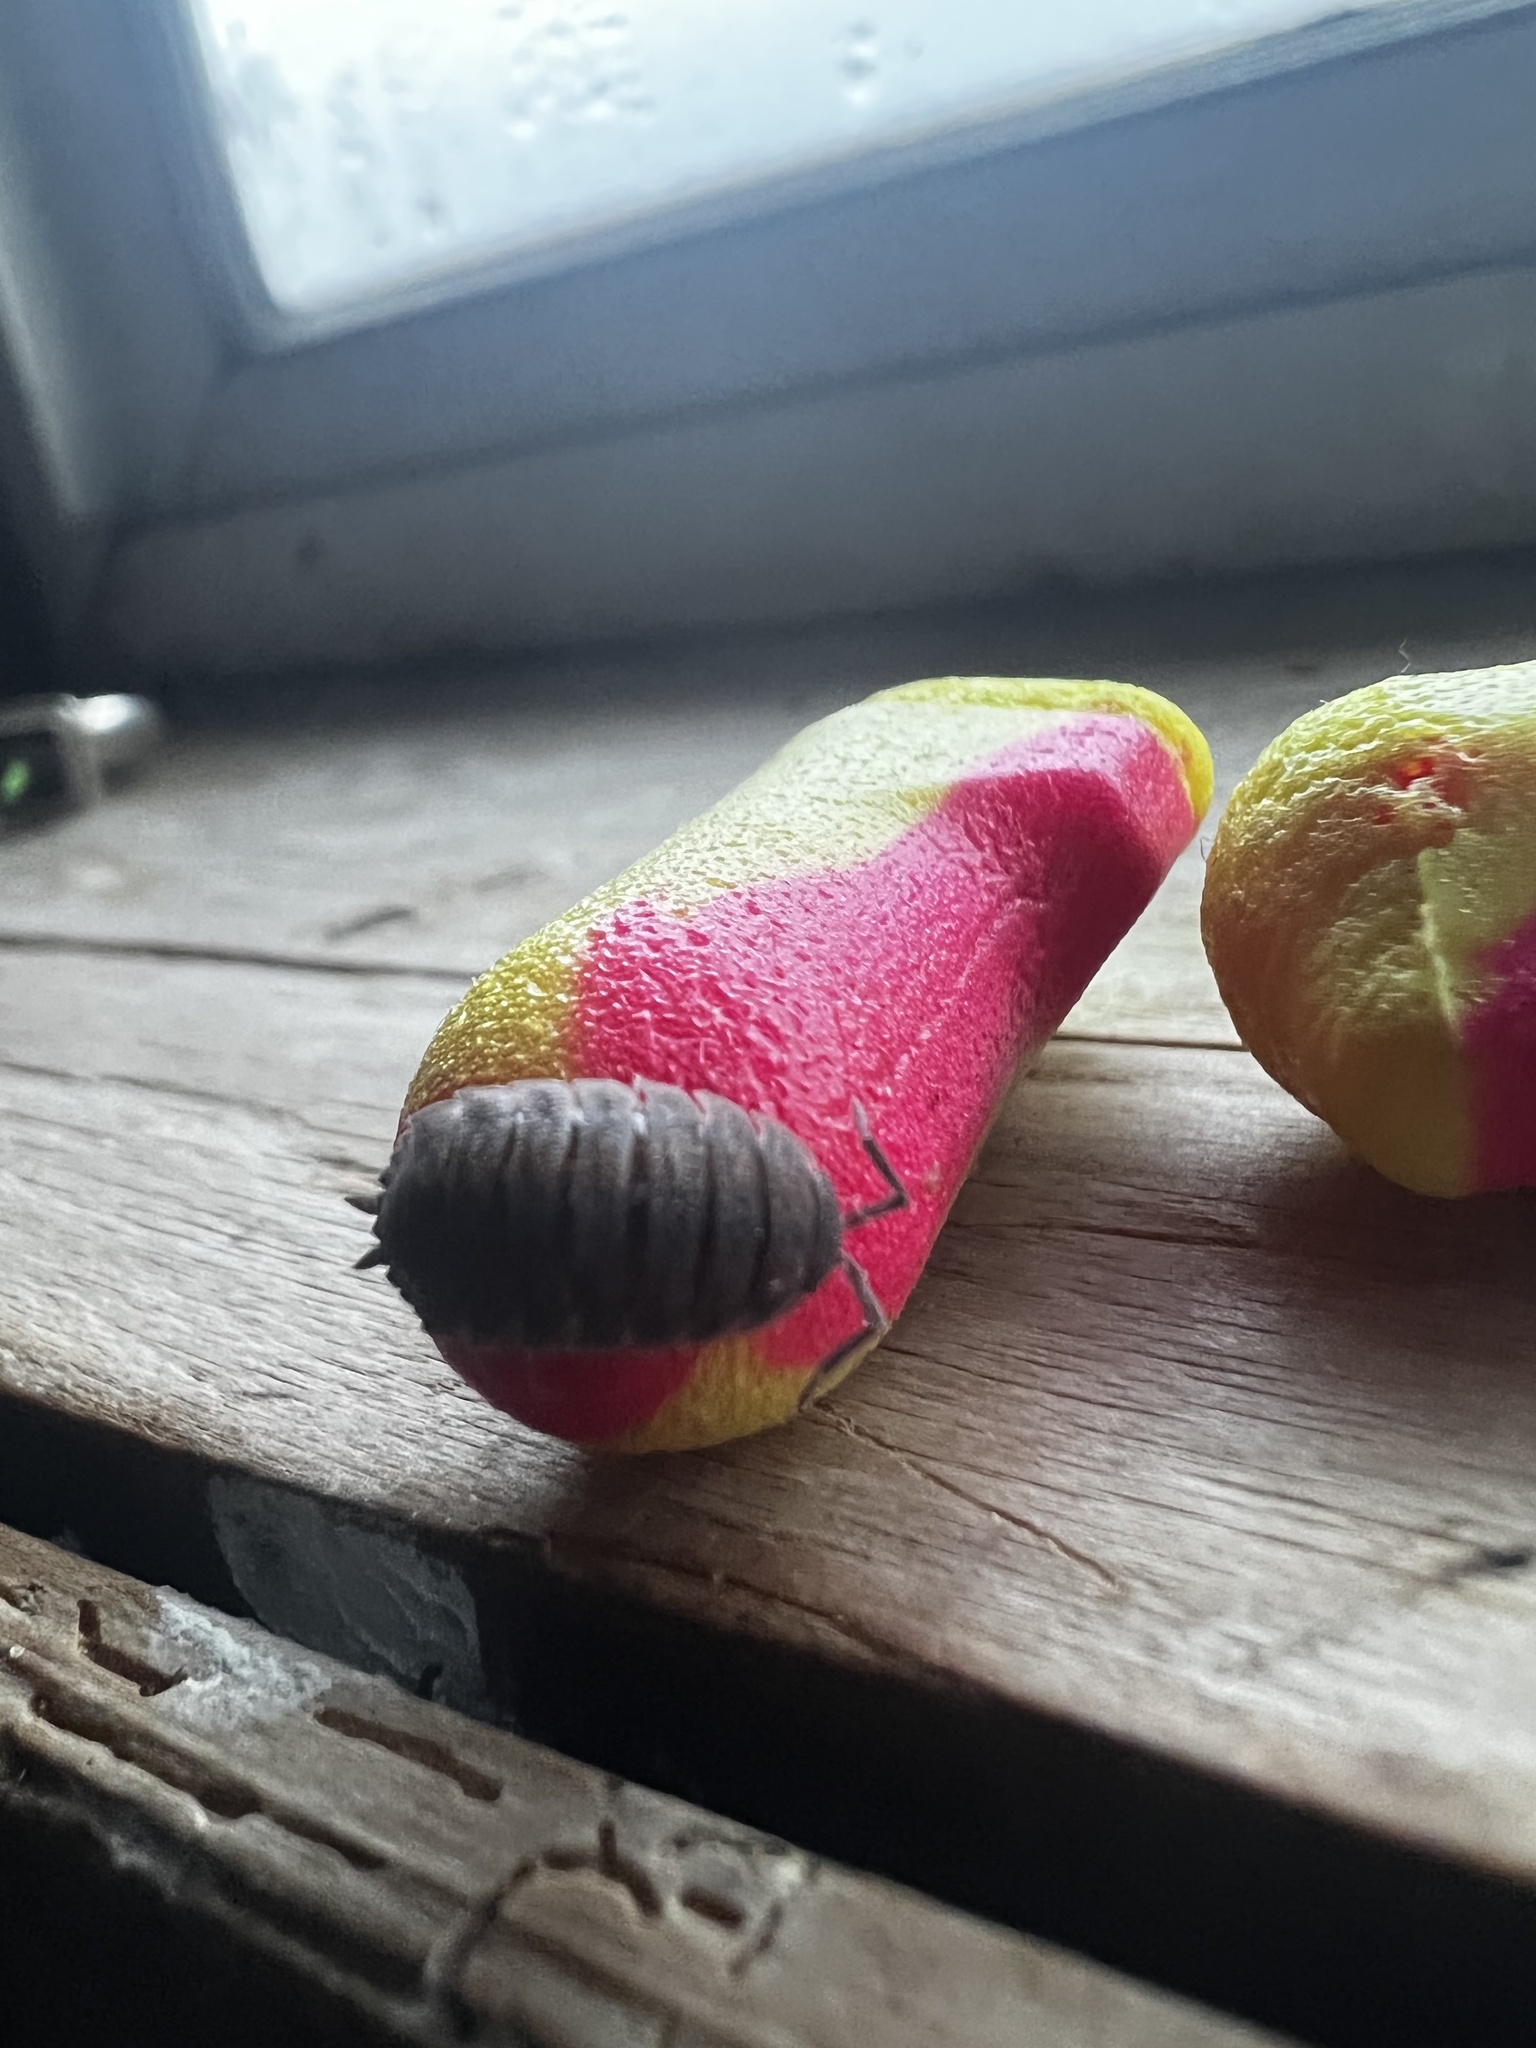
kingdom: Animalia
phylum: Arthropoda
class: Malacostraca
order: Isopoda
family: Porcellionidae
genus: Porcellio
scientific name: Porcellio scaber
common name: Common rough woodlouse
